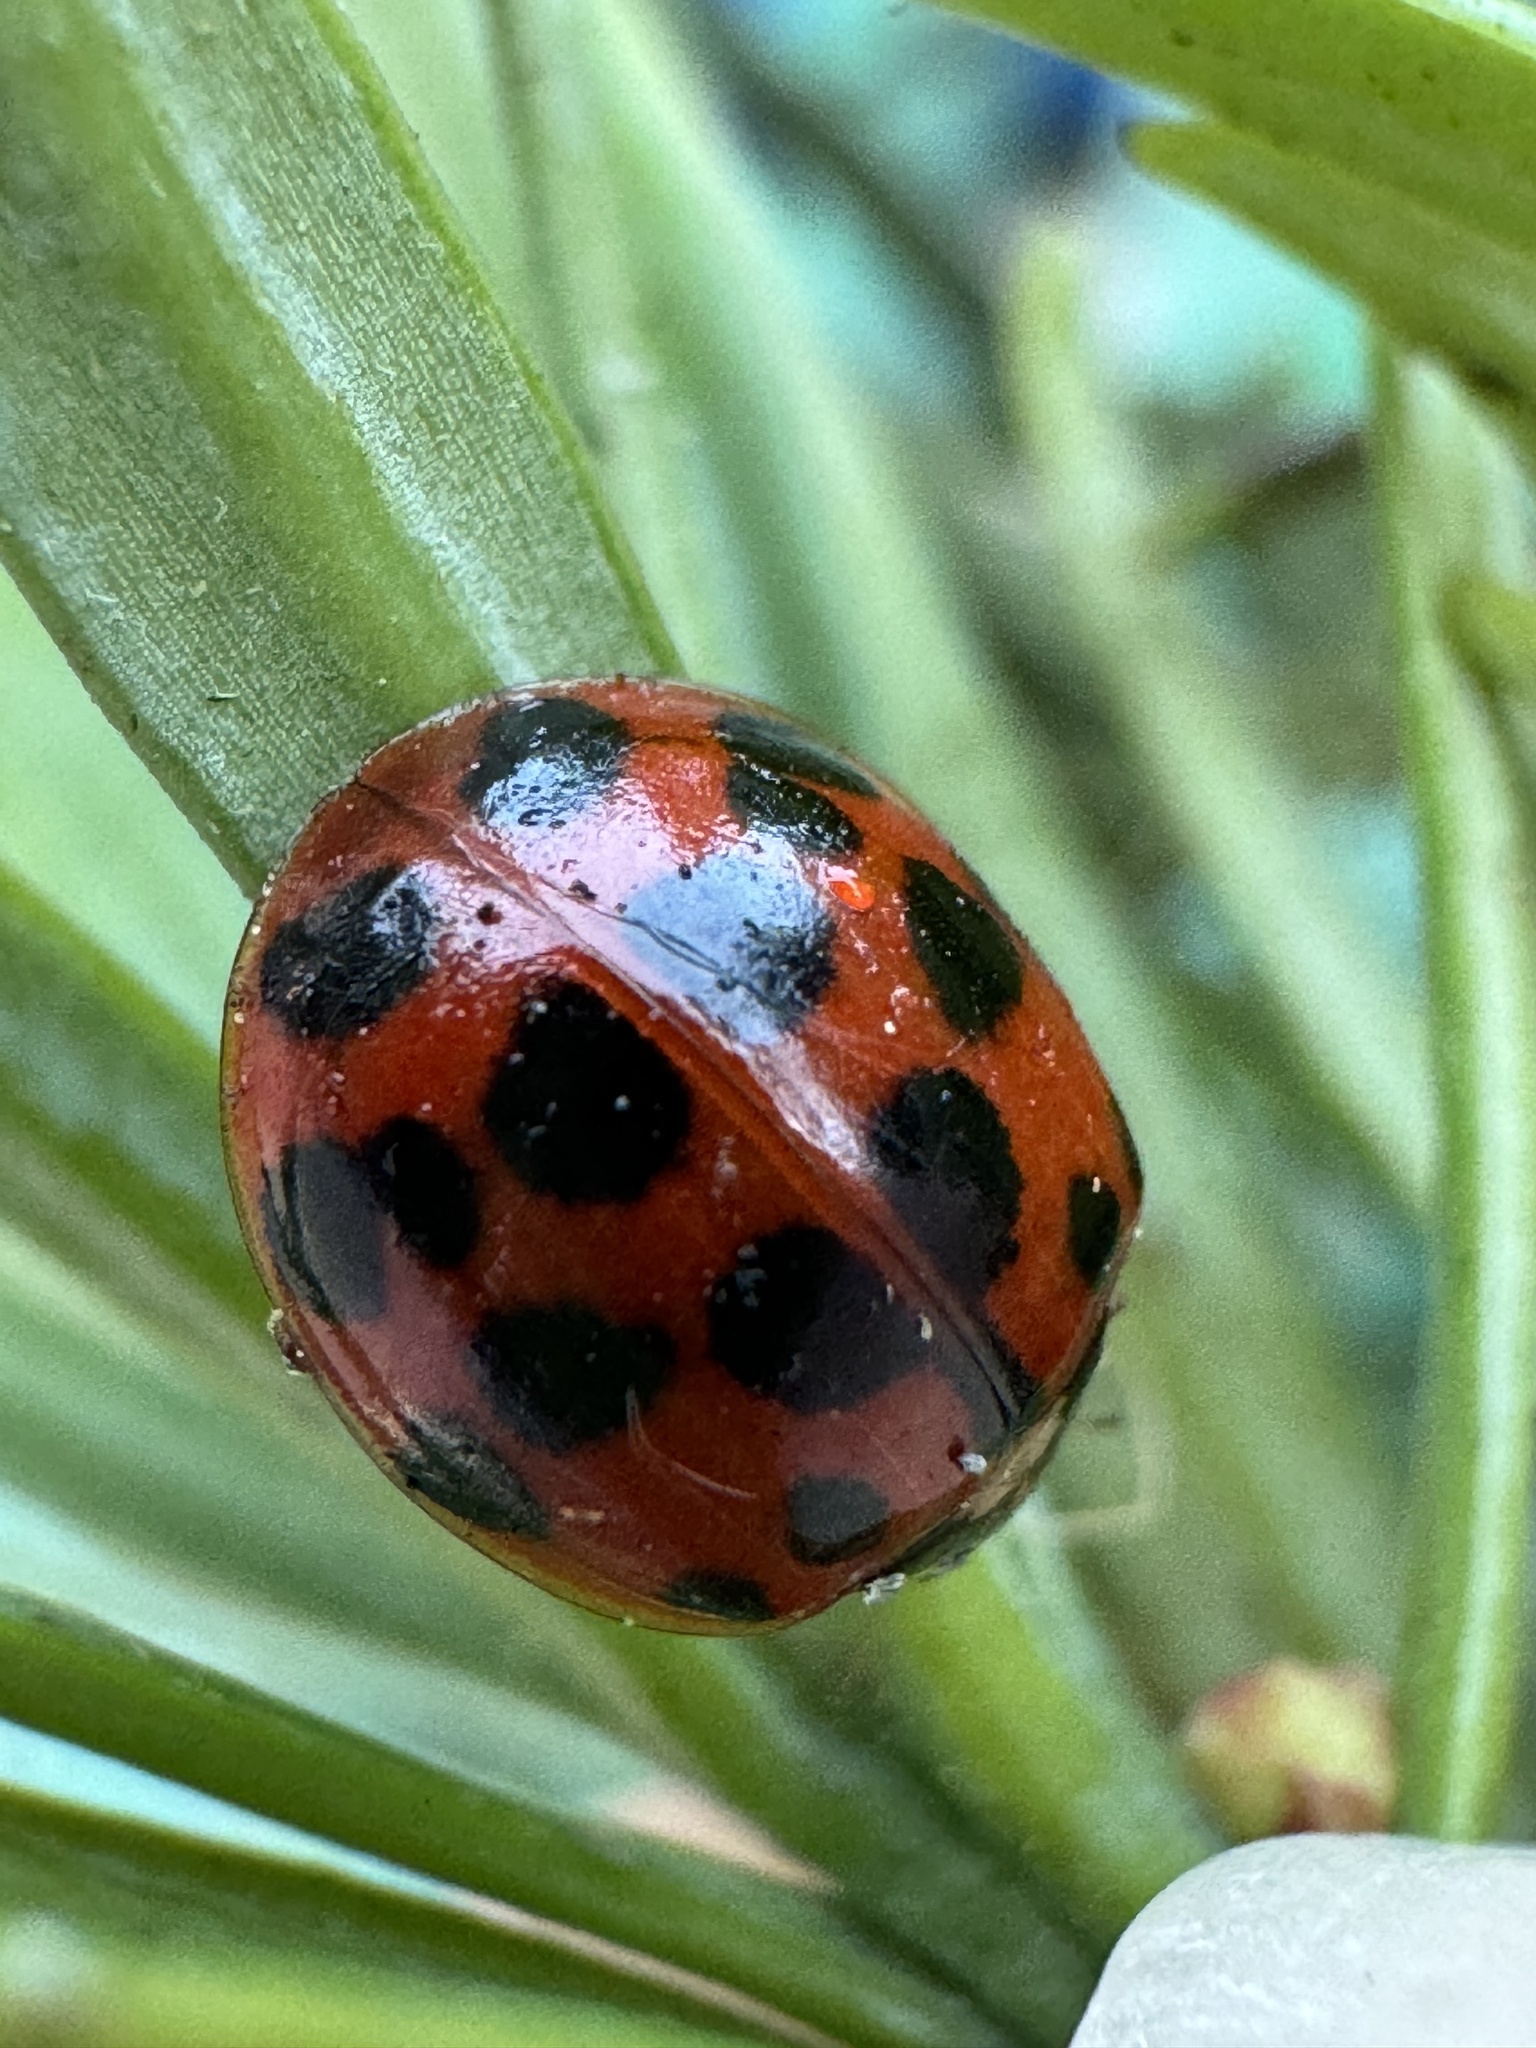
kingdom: Animalia
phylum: Arthropoda
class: Insecta
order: Coleoptera
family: Coccinellidae
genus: Harmonia
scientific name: Harmonia axyridis
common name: Harlequin ladybird
